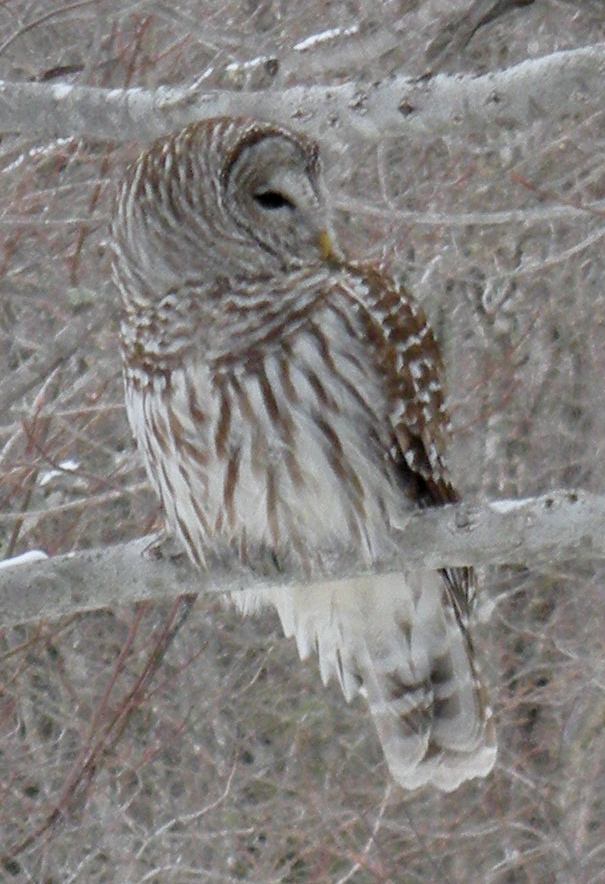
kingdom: Animalia
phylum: Chordata
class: Aves
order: Strigiformes
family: Strigidae
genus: Strix
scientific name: Strix varia
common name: Barred owl
